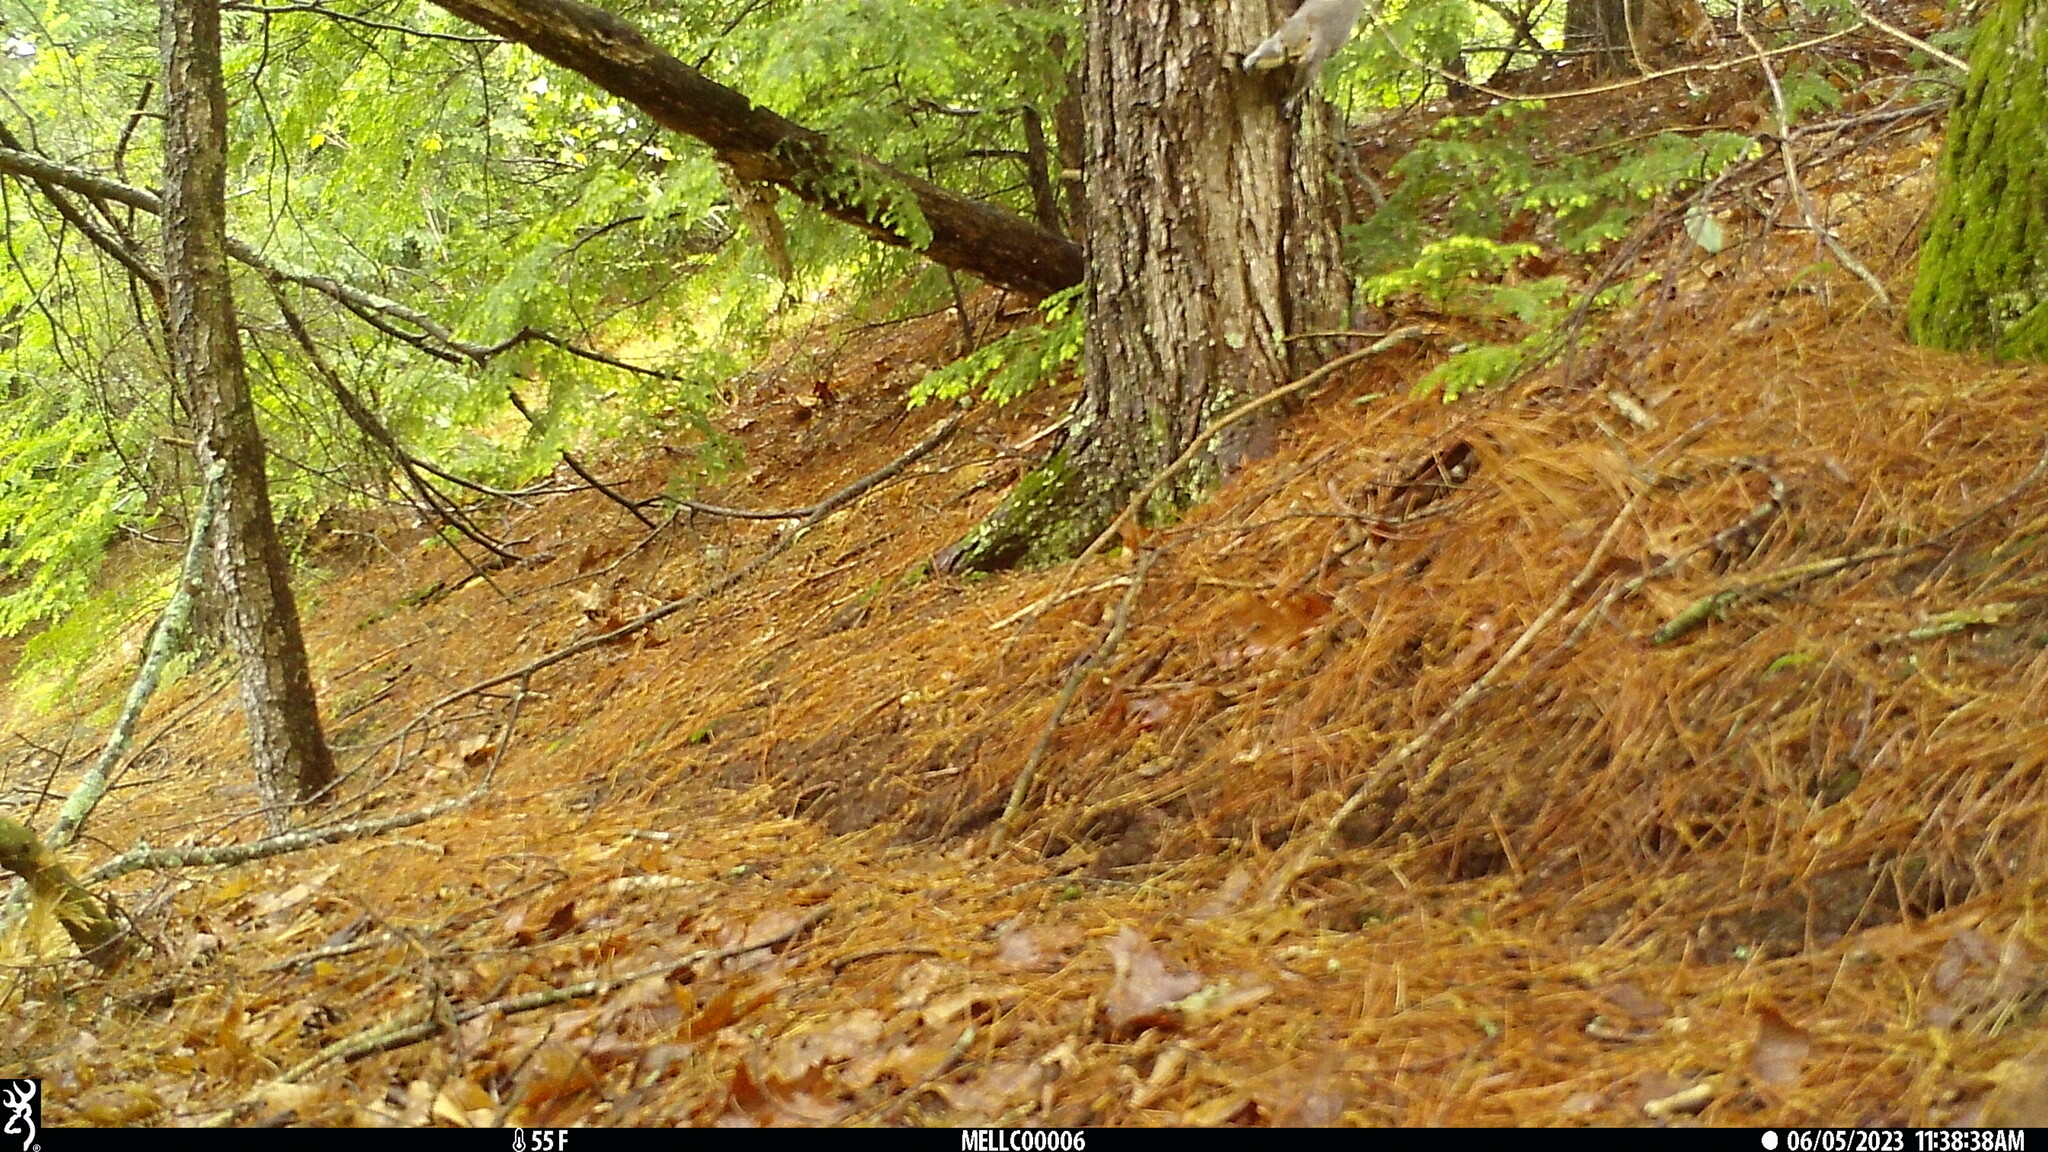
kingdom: Animalia
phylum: Chordata
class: Mammalia
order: Rodentia
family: Sciuridae
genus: Sciurus
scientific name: Sciurus carolinensis
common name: Eastern gray squirrel
